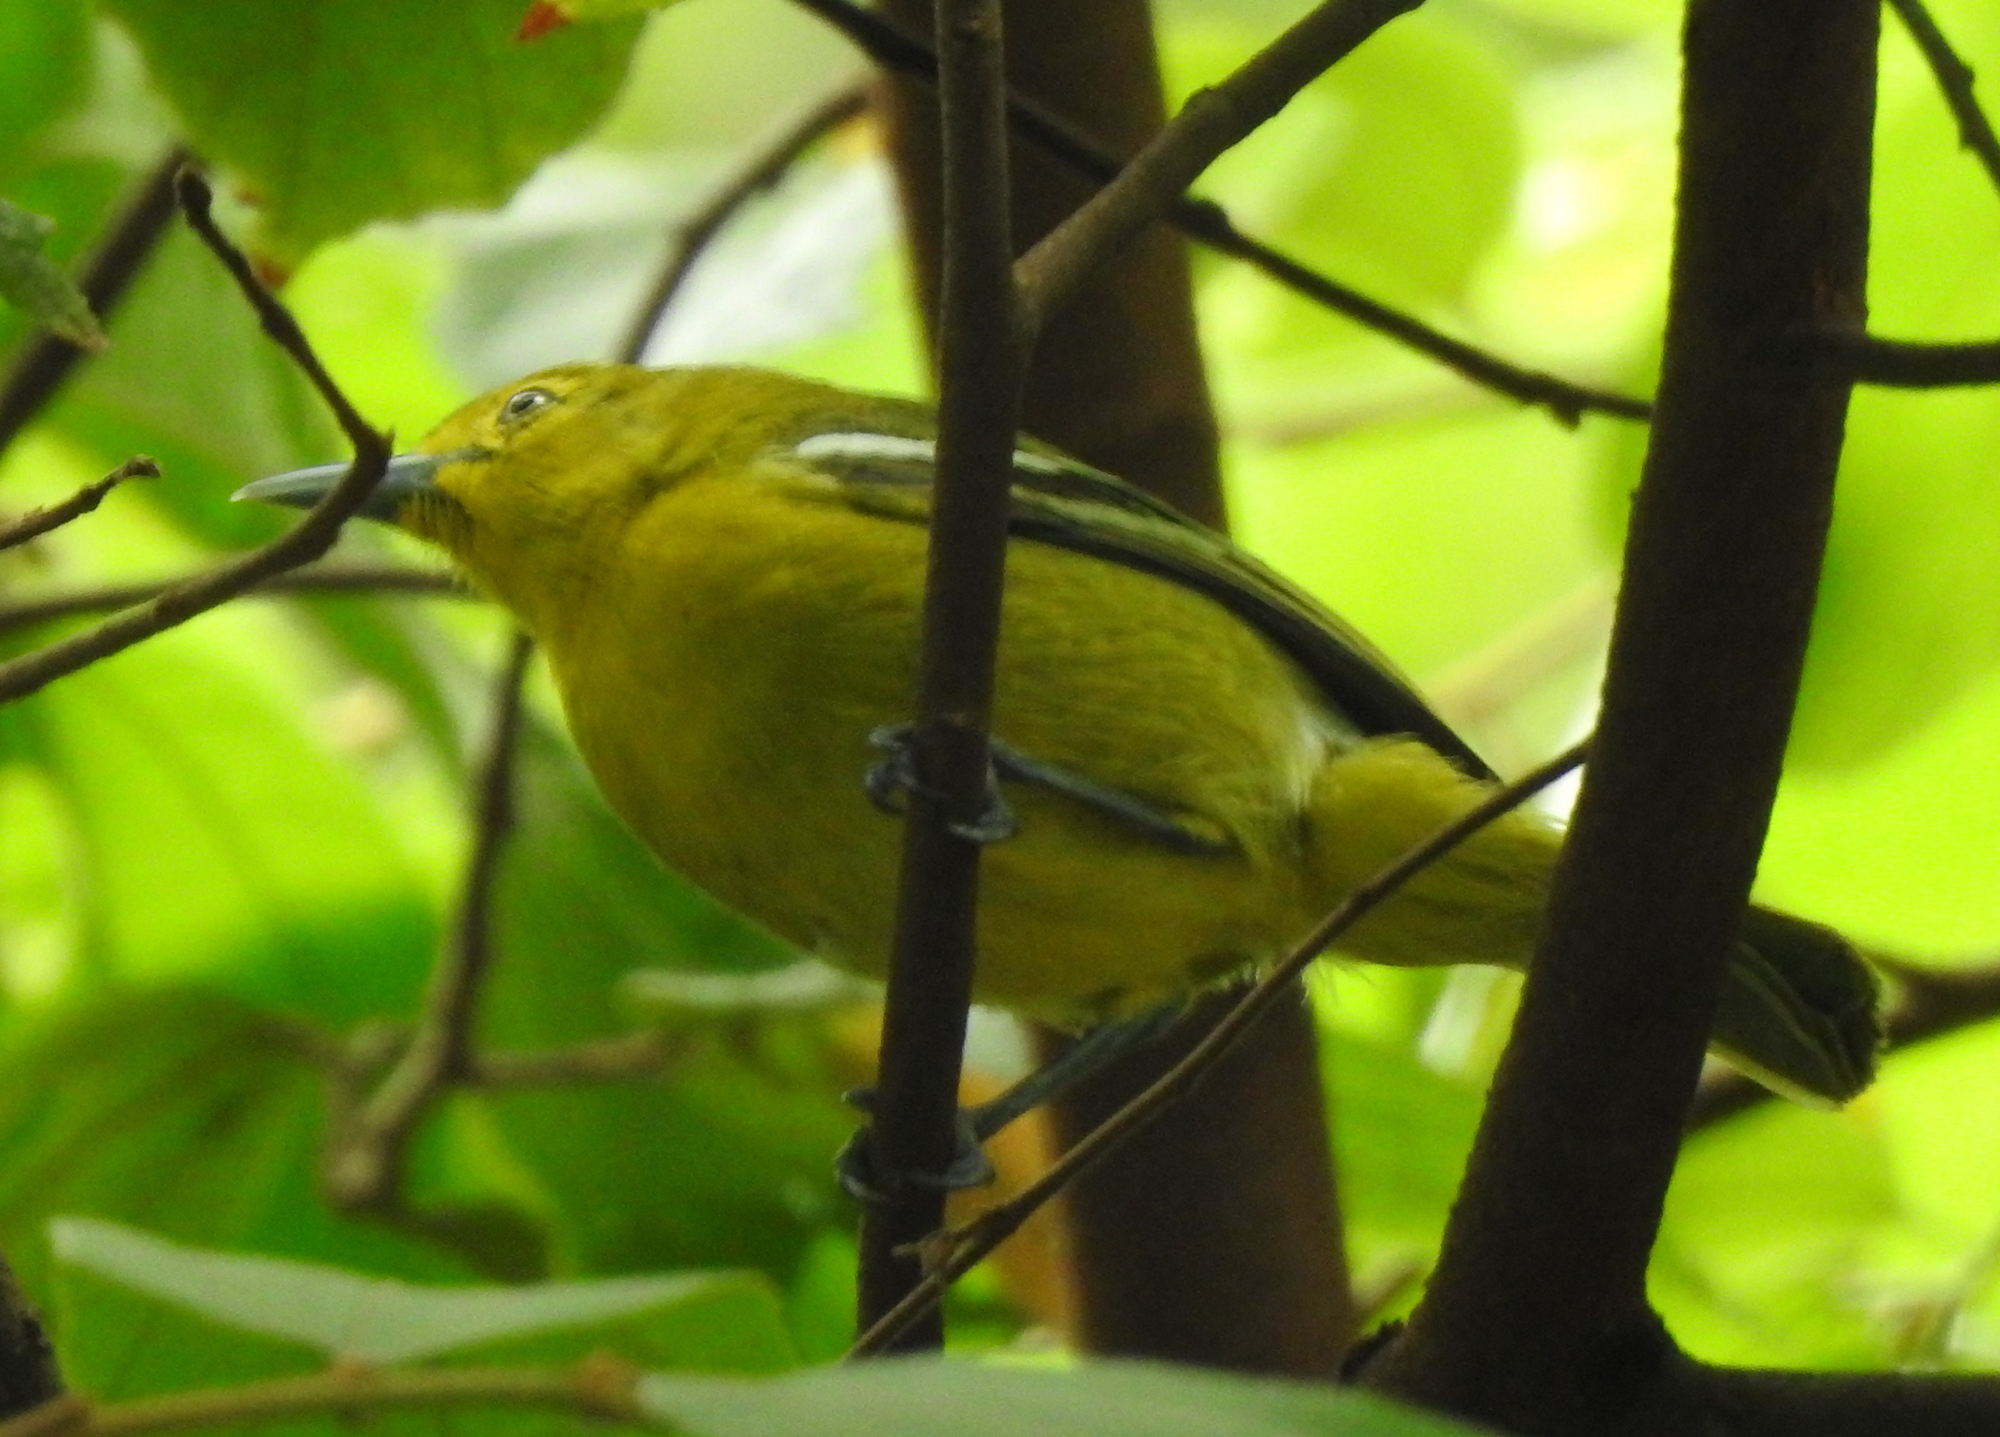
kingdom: Animalia
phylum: Chordata
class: Aves
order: Passeriformes
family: Aegithinidae
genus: Aegithina
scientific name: Aegithina tiphia
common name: Common iora
